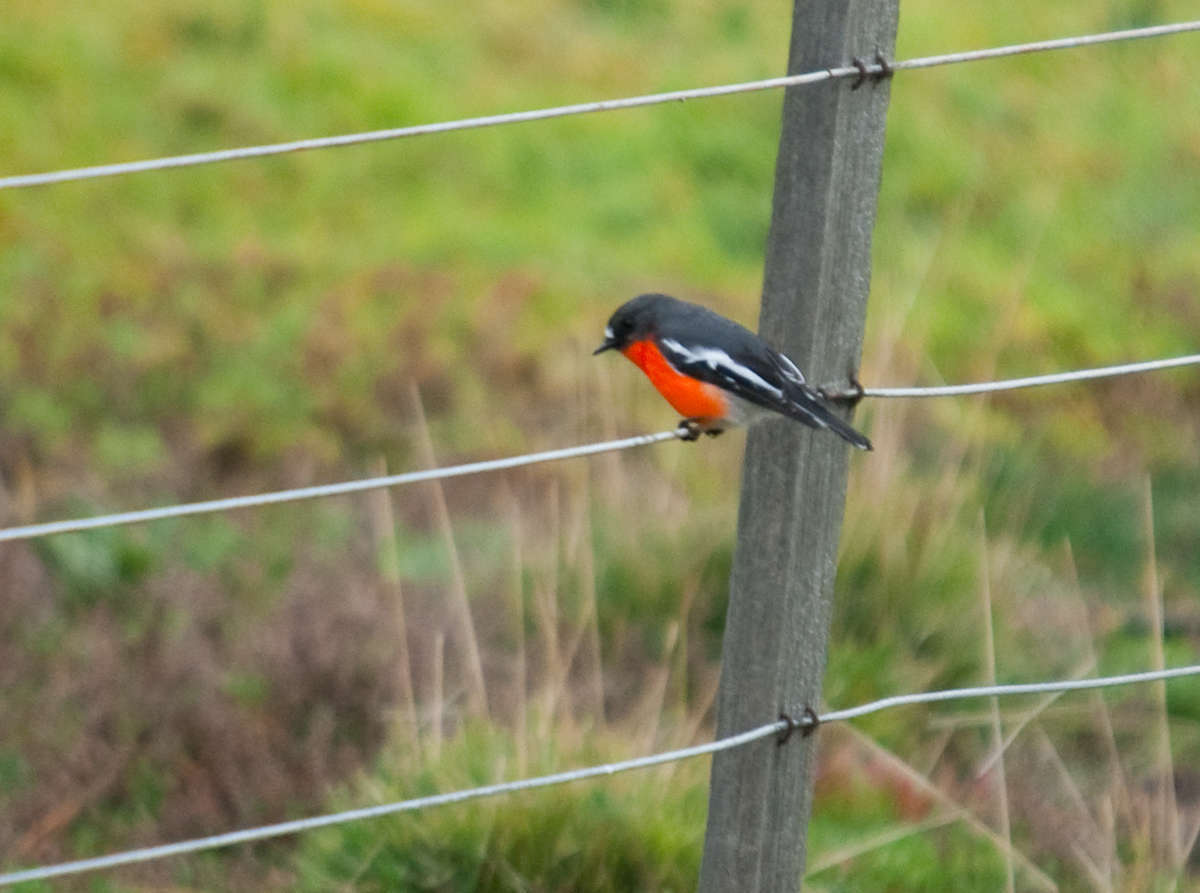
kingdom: Animalia
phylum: Chordata
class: Aves
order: Passeriformes
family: Petroicidae
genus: Petroica
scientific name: Petroica phoenicea
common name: Flame robin
